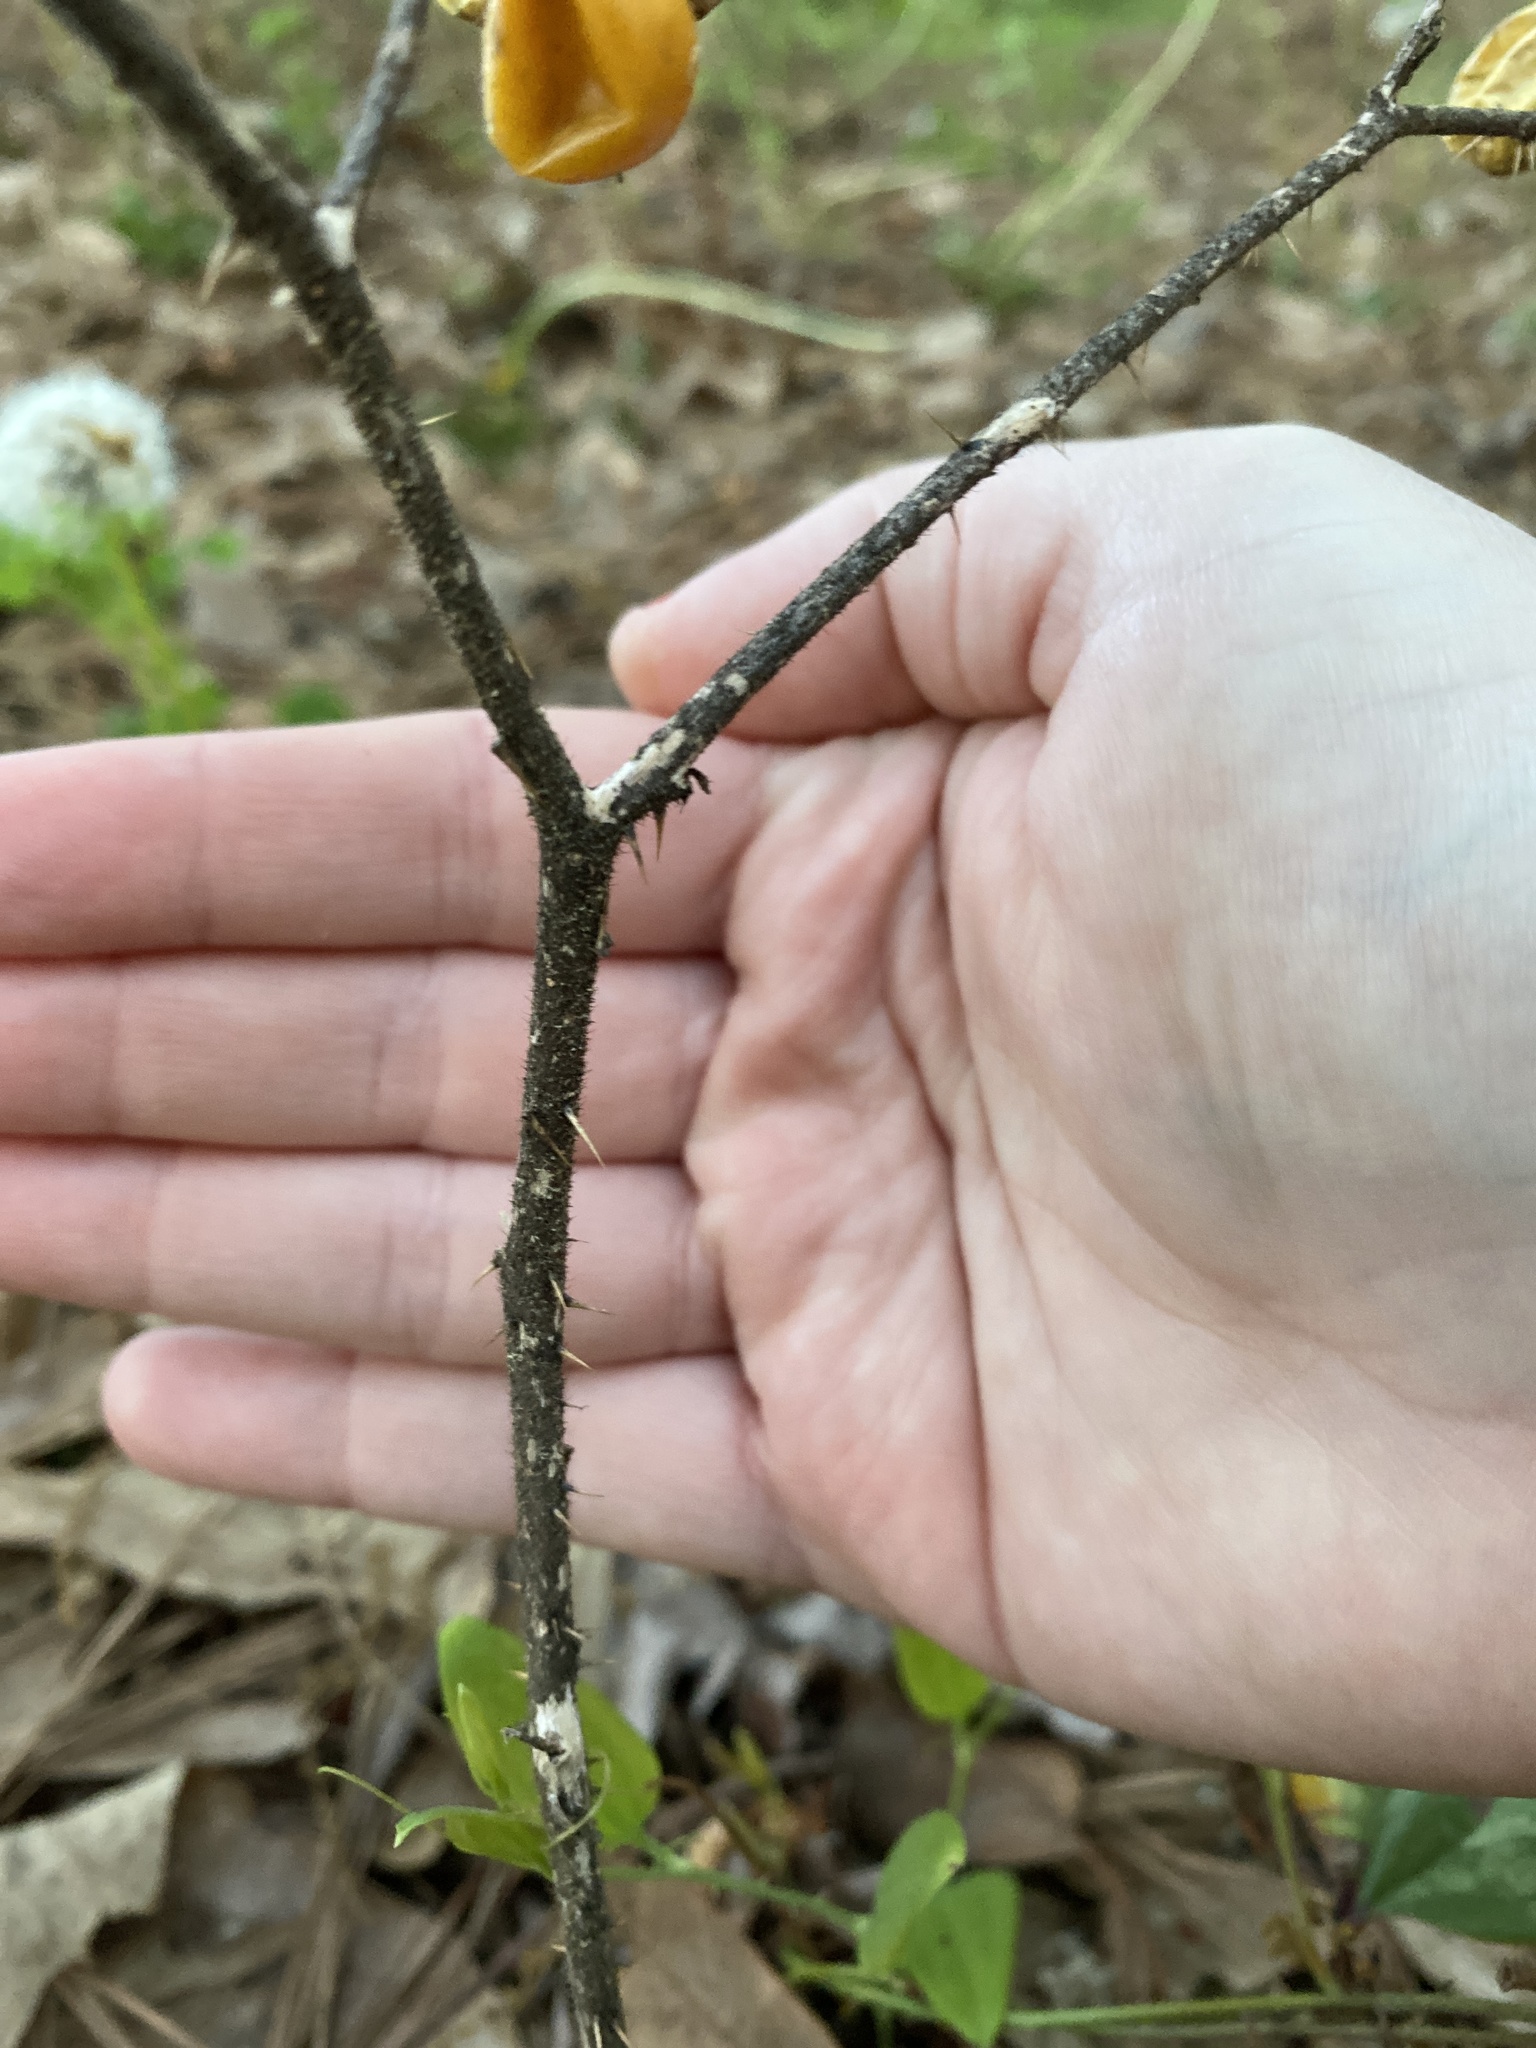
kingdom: Plantae
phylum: Tracheophyta
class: Magnoliopsida
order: Solanales
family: Solanaceae
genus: Solanum
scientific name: Solanum carolinense
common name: Horse-nettle
